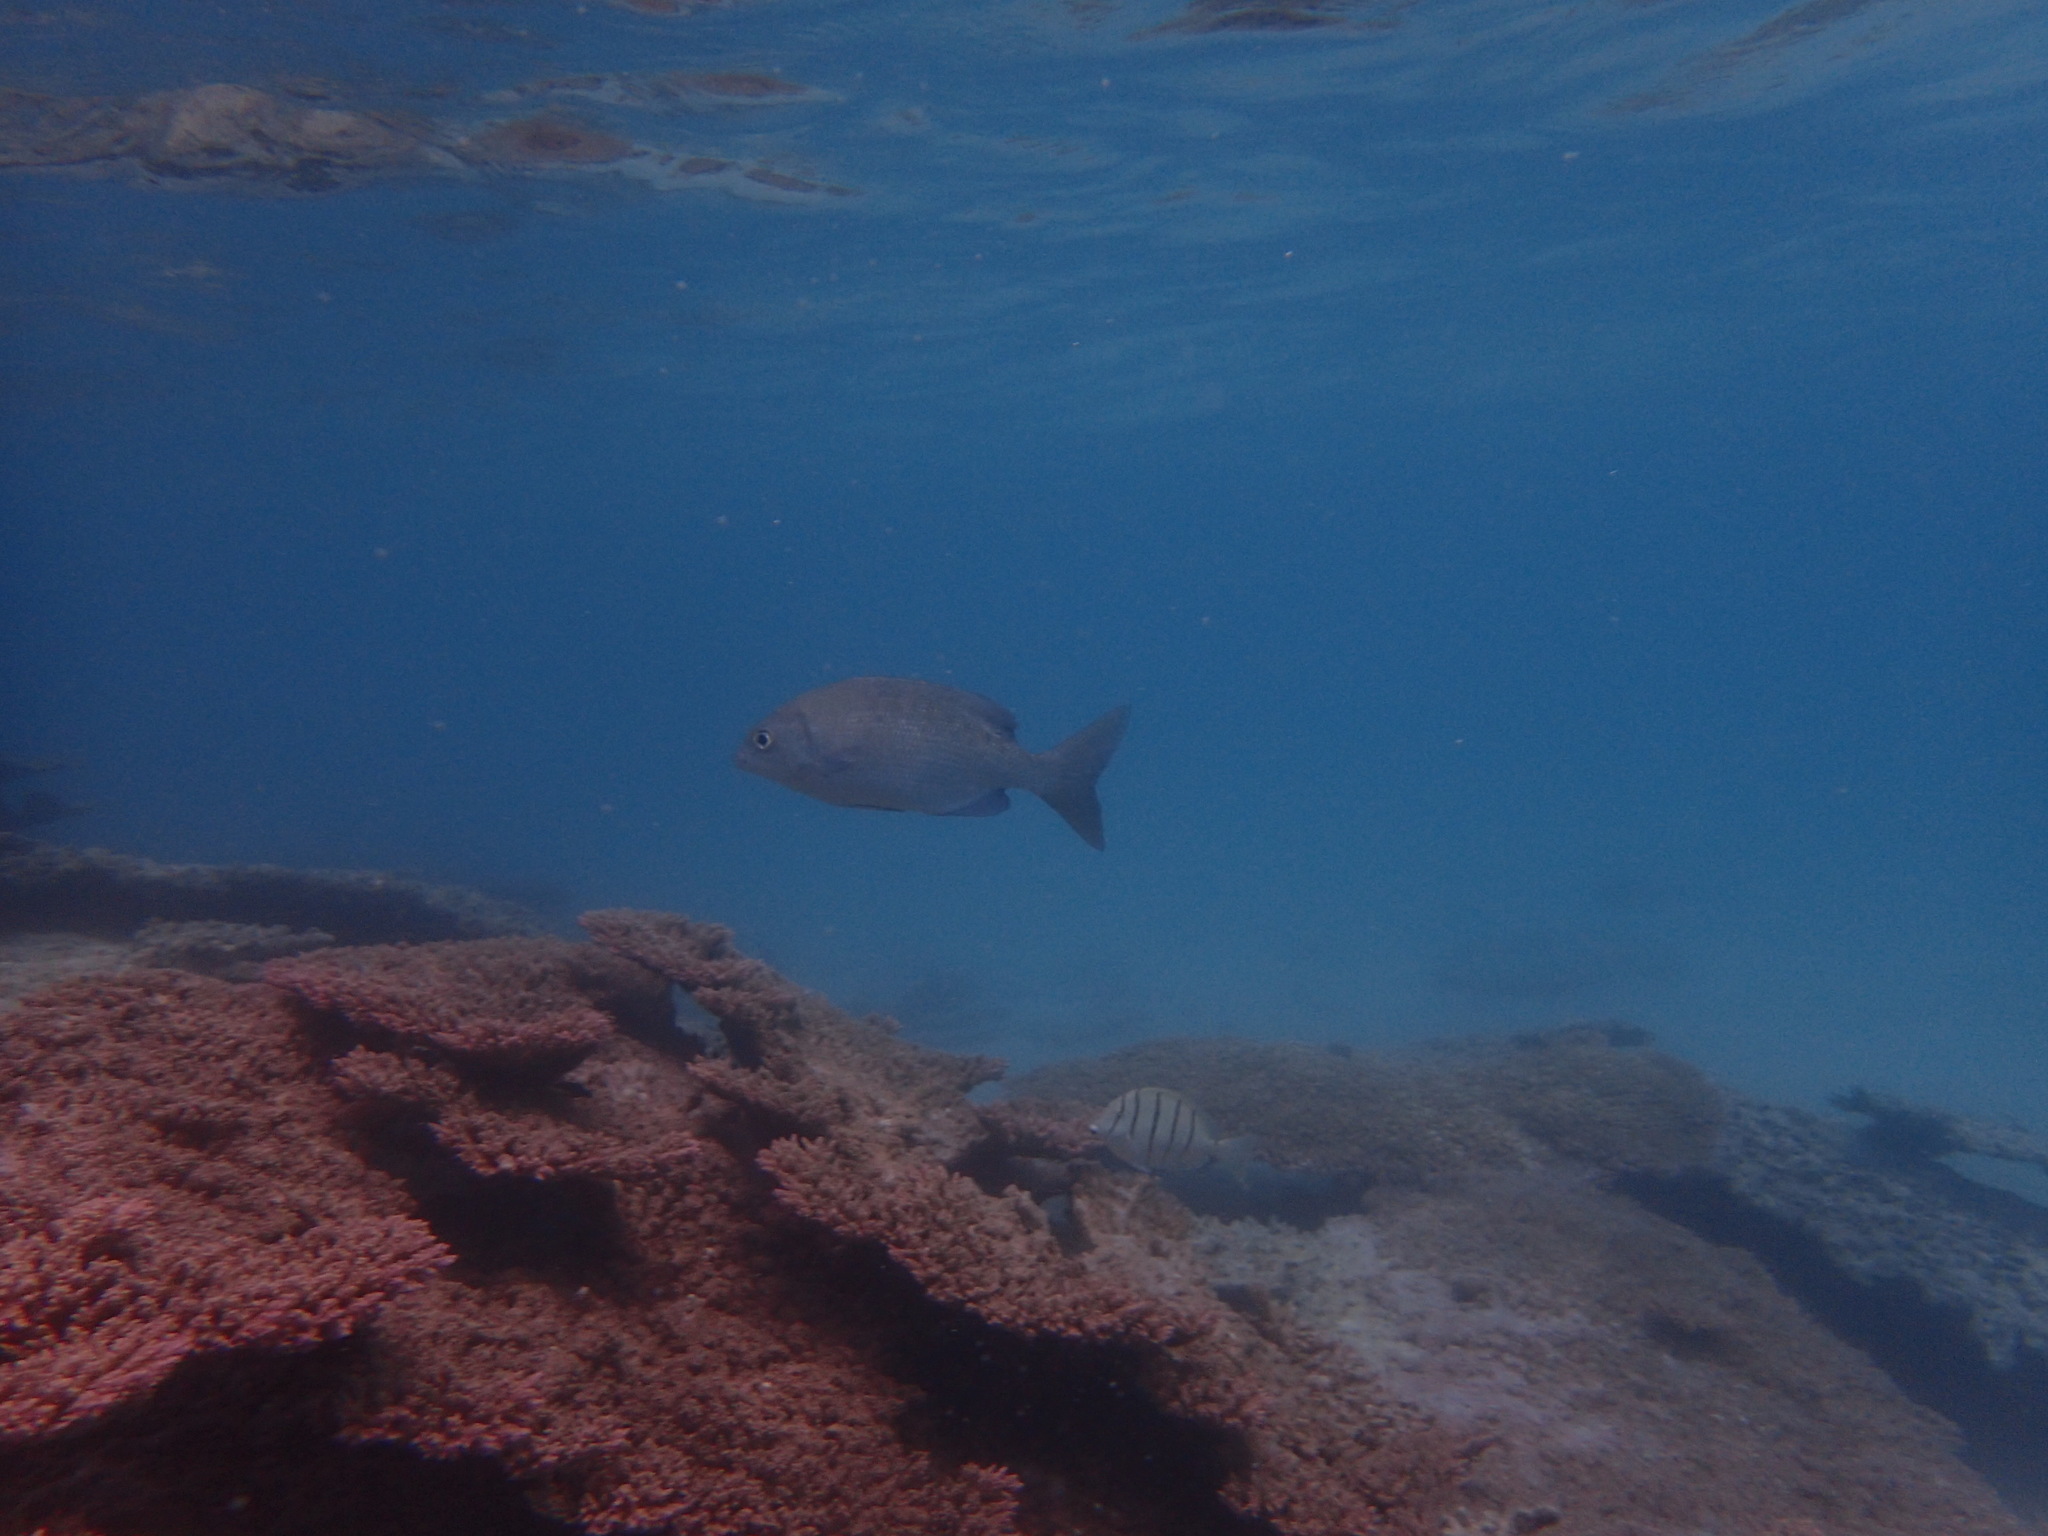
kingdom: Animalia
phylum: Chordata
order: Perciformes
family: Kyphosidae
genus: Kyphosus
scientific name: Kyphosus cinerascens
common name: Topsail drummer
